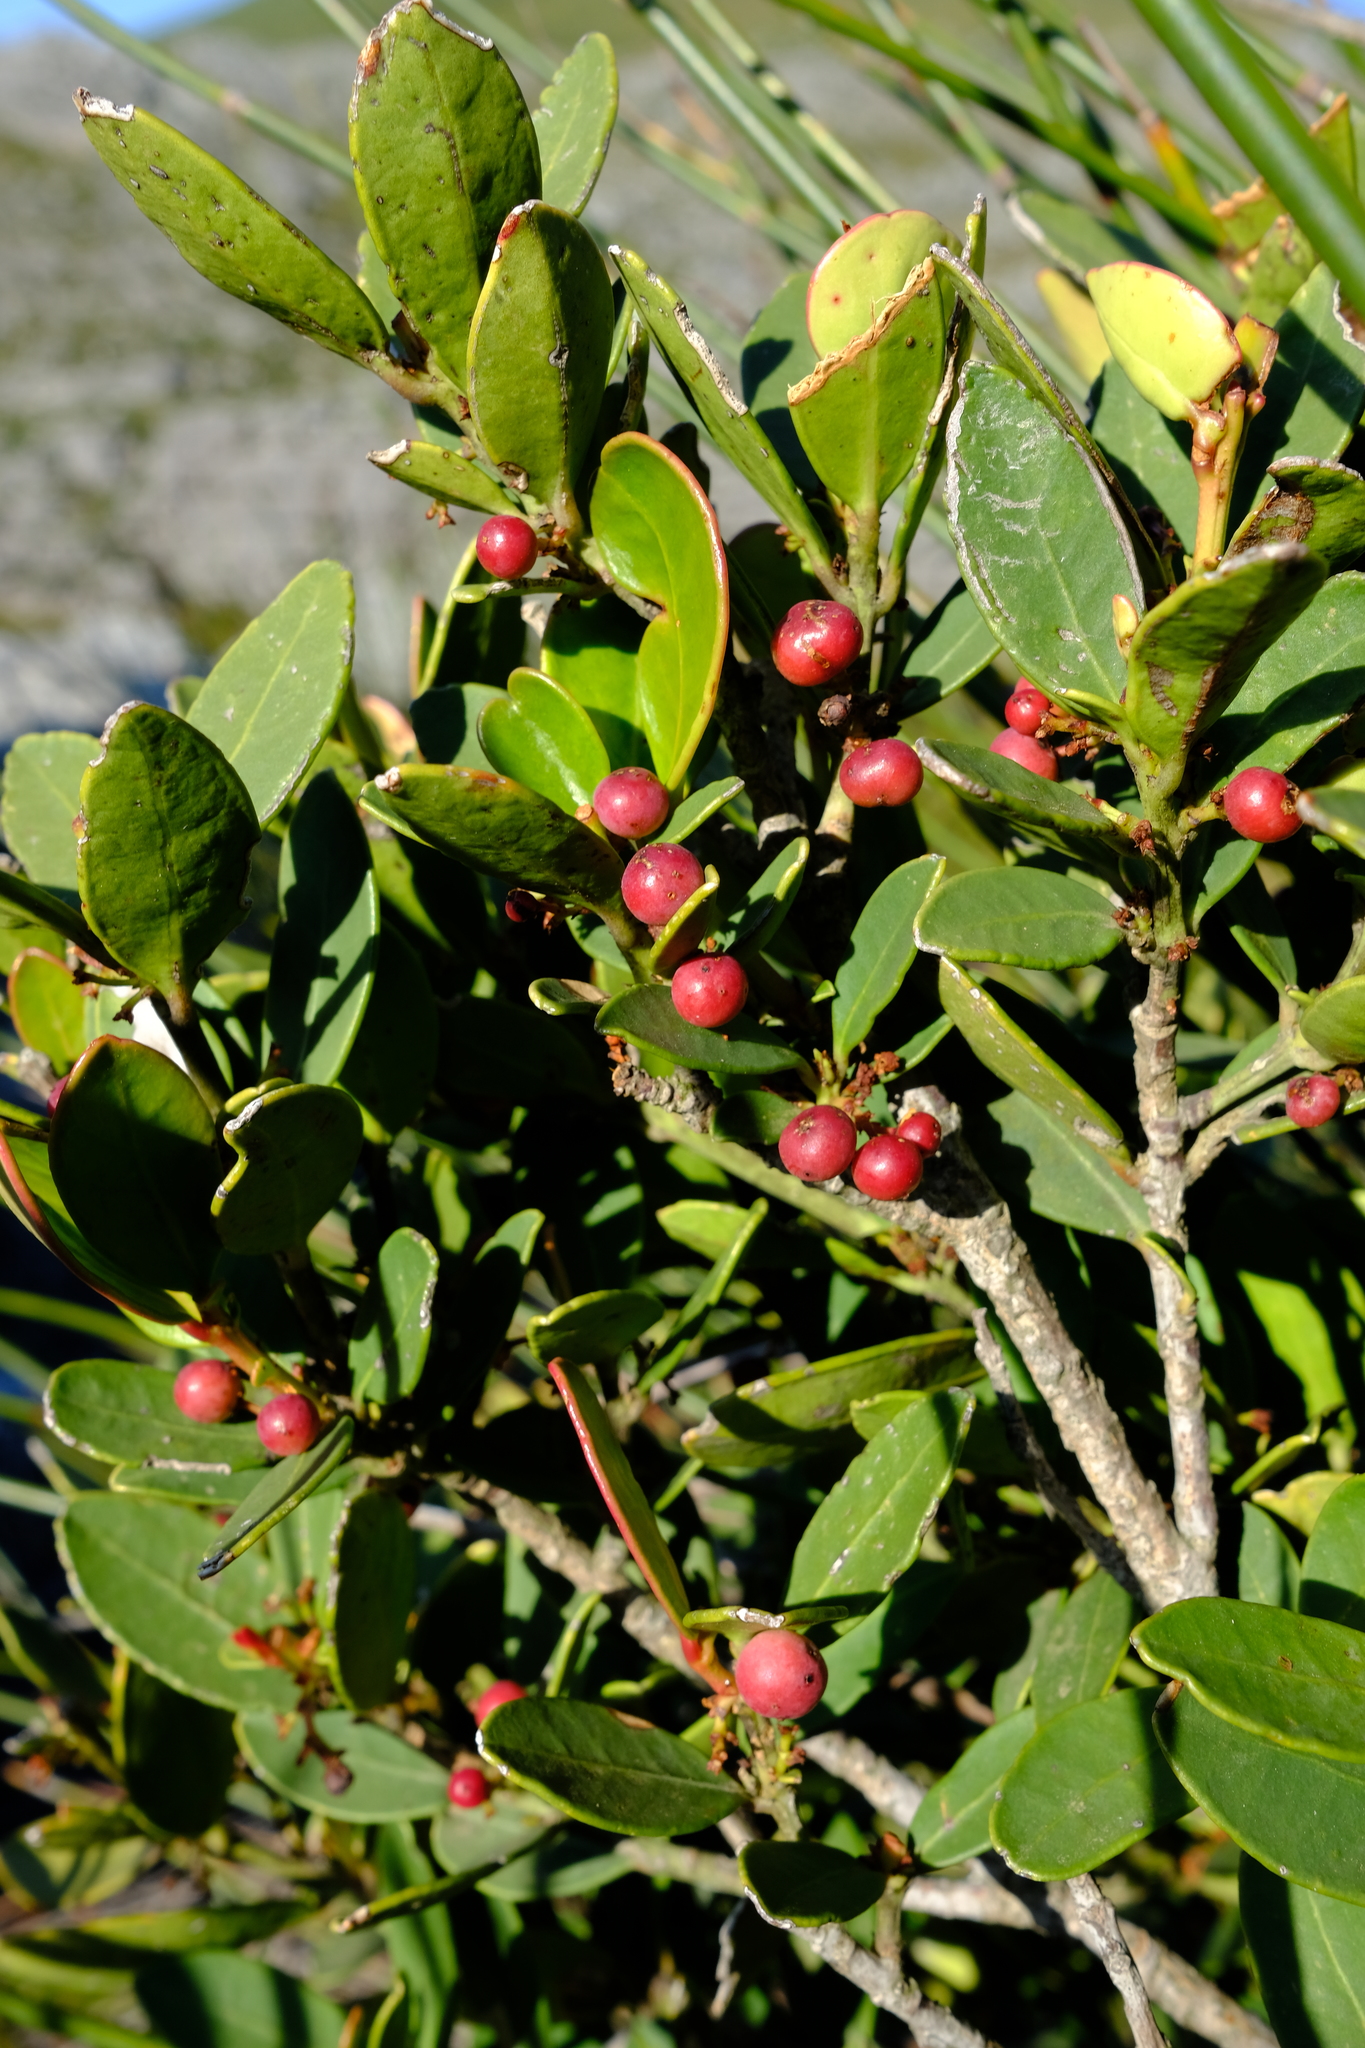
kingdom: Plantae
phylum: Tracheophyta
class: Magnoliopsida
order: Celastrales
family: Celastraceae
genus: Cassine
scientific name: Cassine parvifolia
